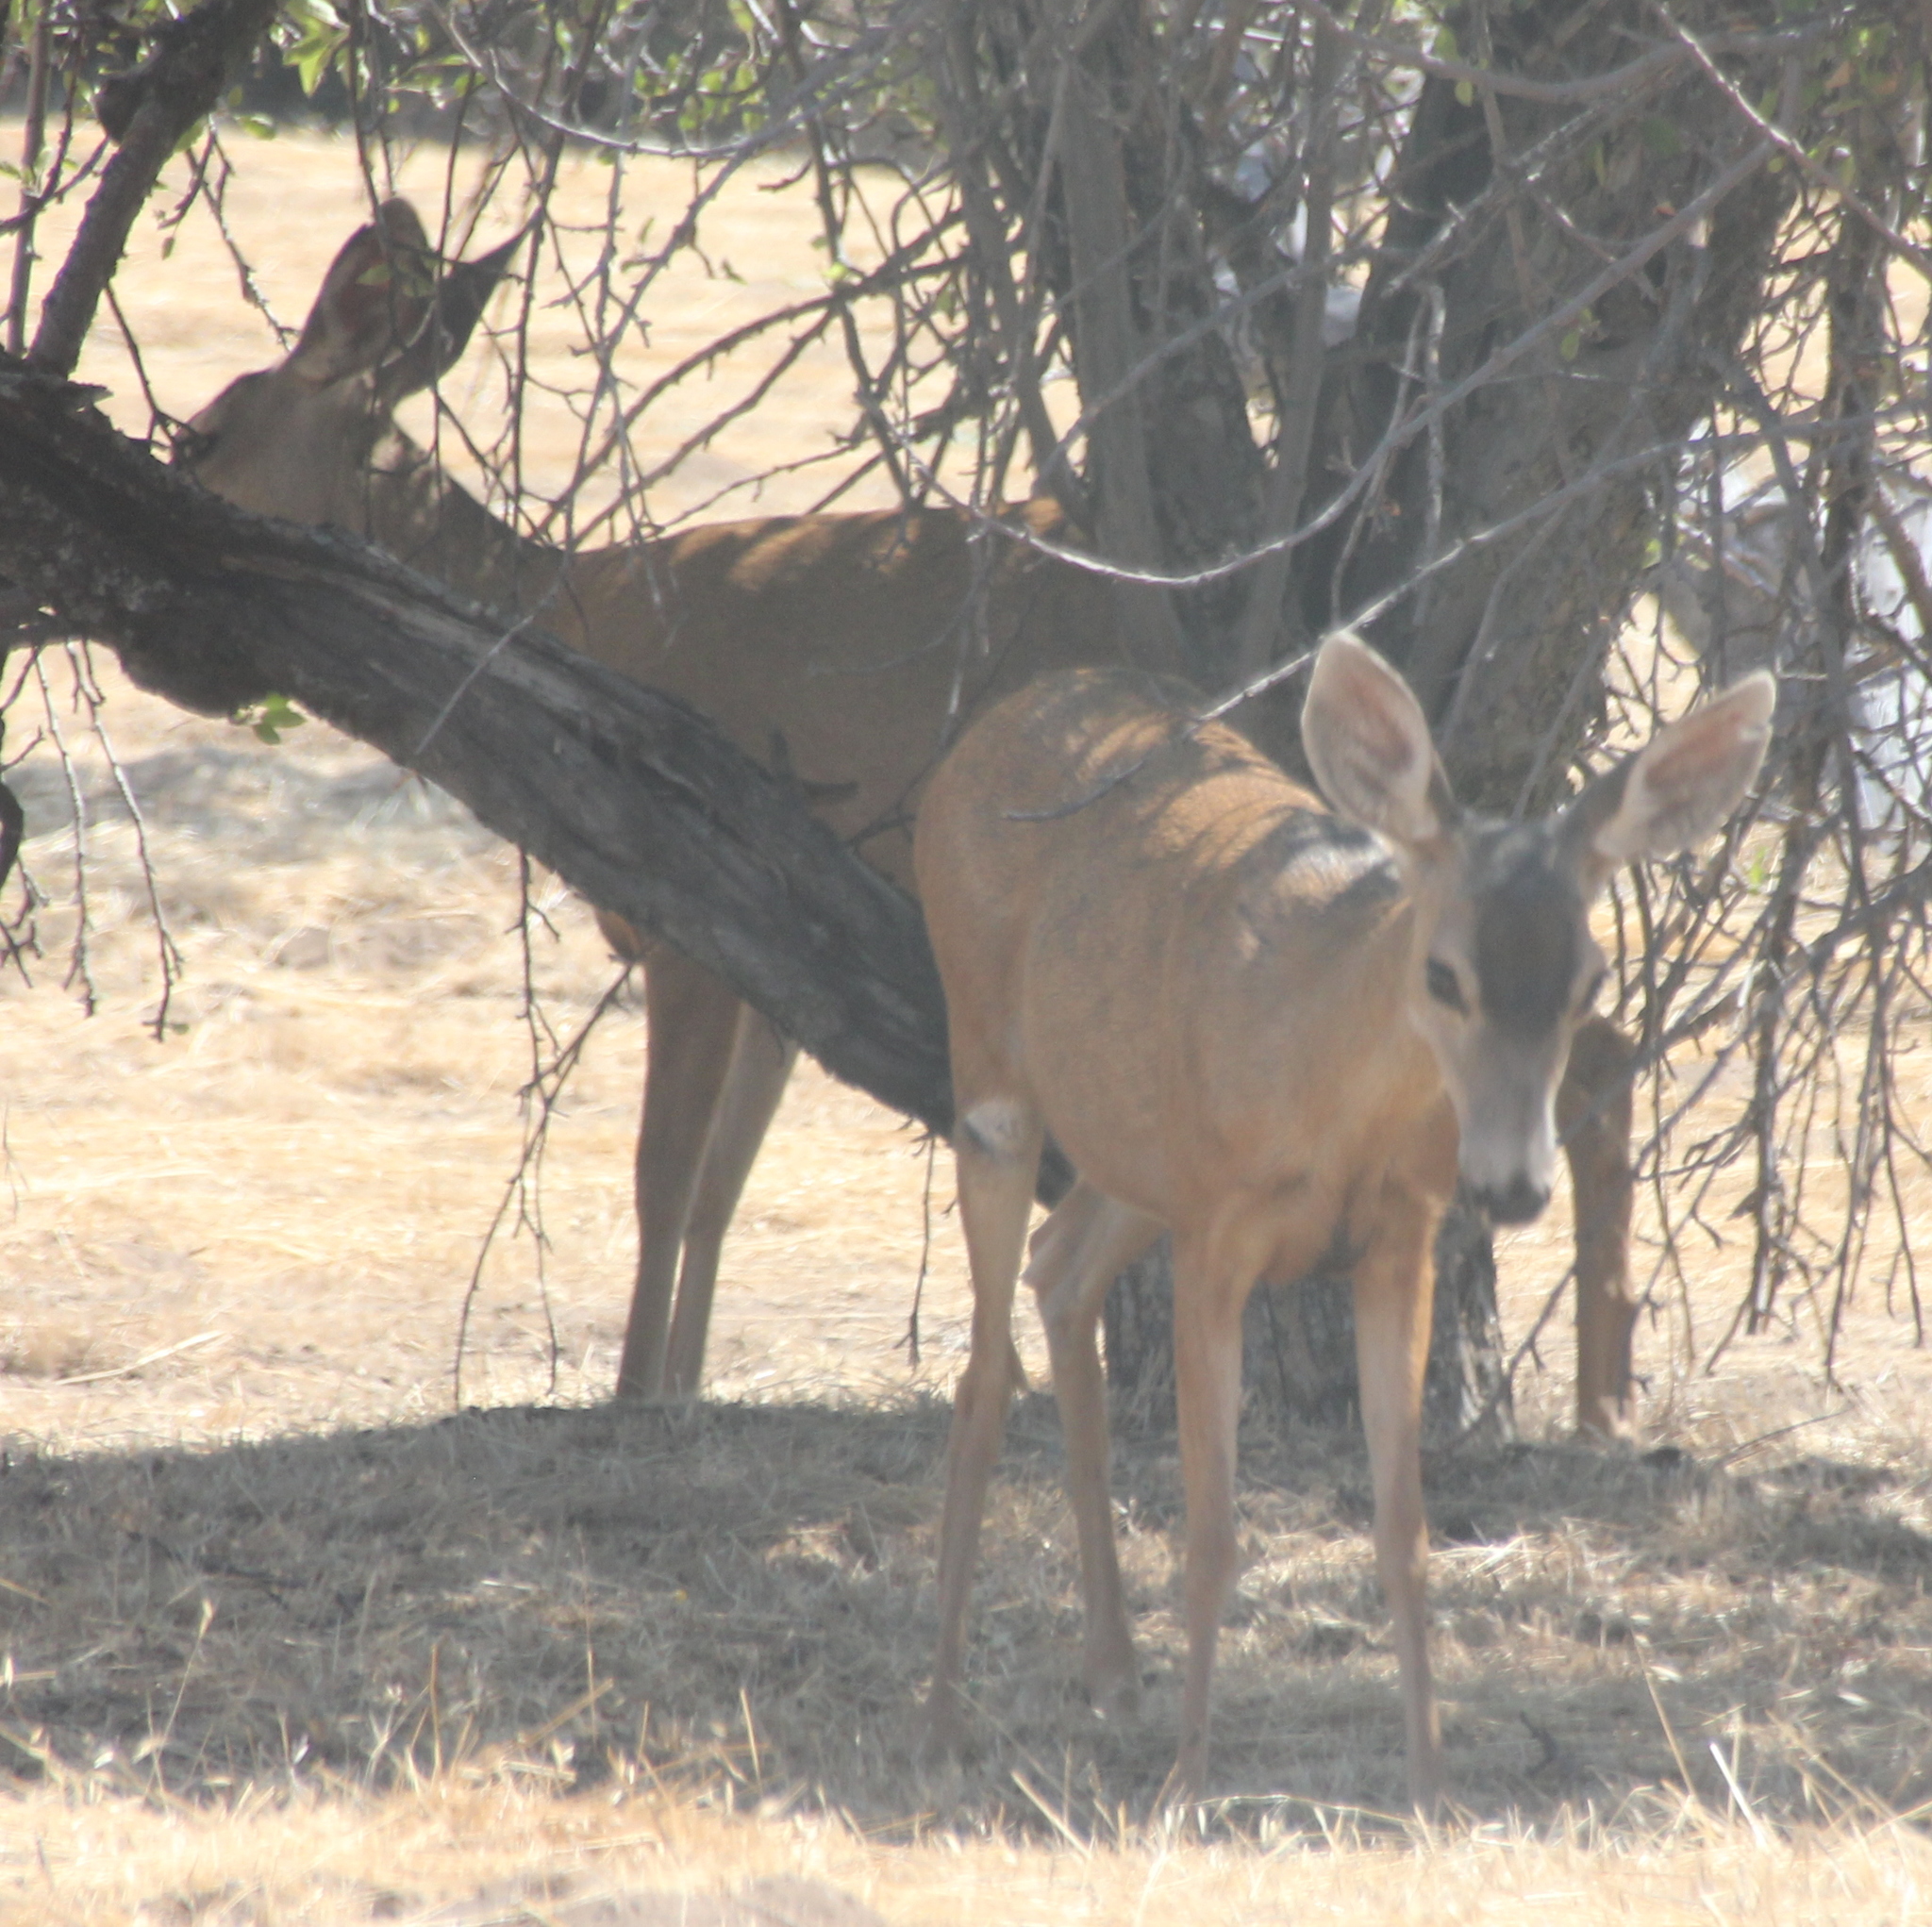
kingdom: Animalia
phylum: Chordata
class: Mammalia
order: Artiodactyla
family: Cervidae
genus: Odocoileus
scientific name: Odocoileus hemionus
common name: Mule deer
